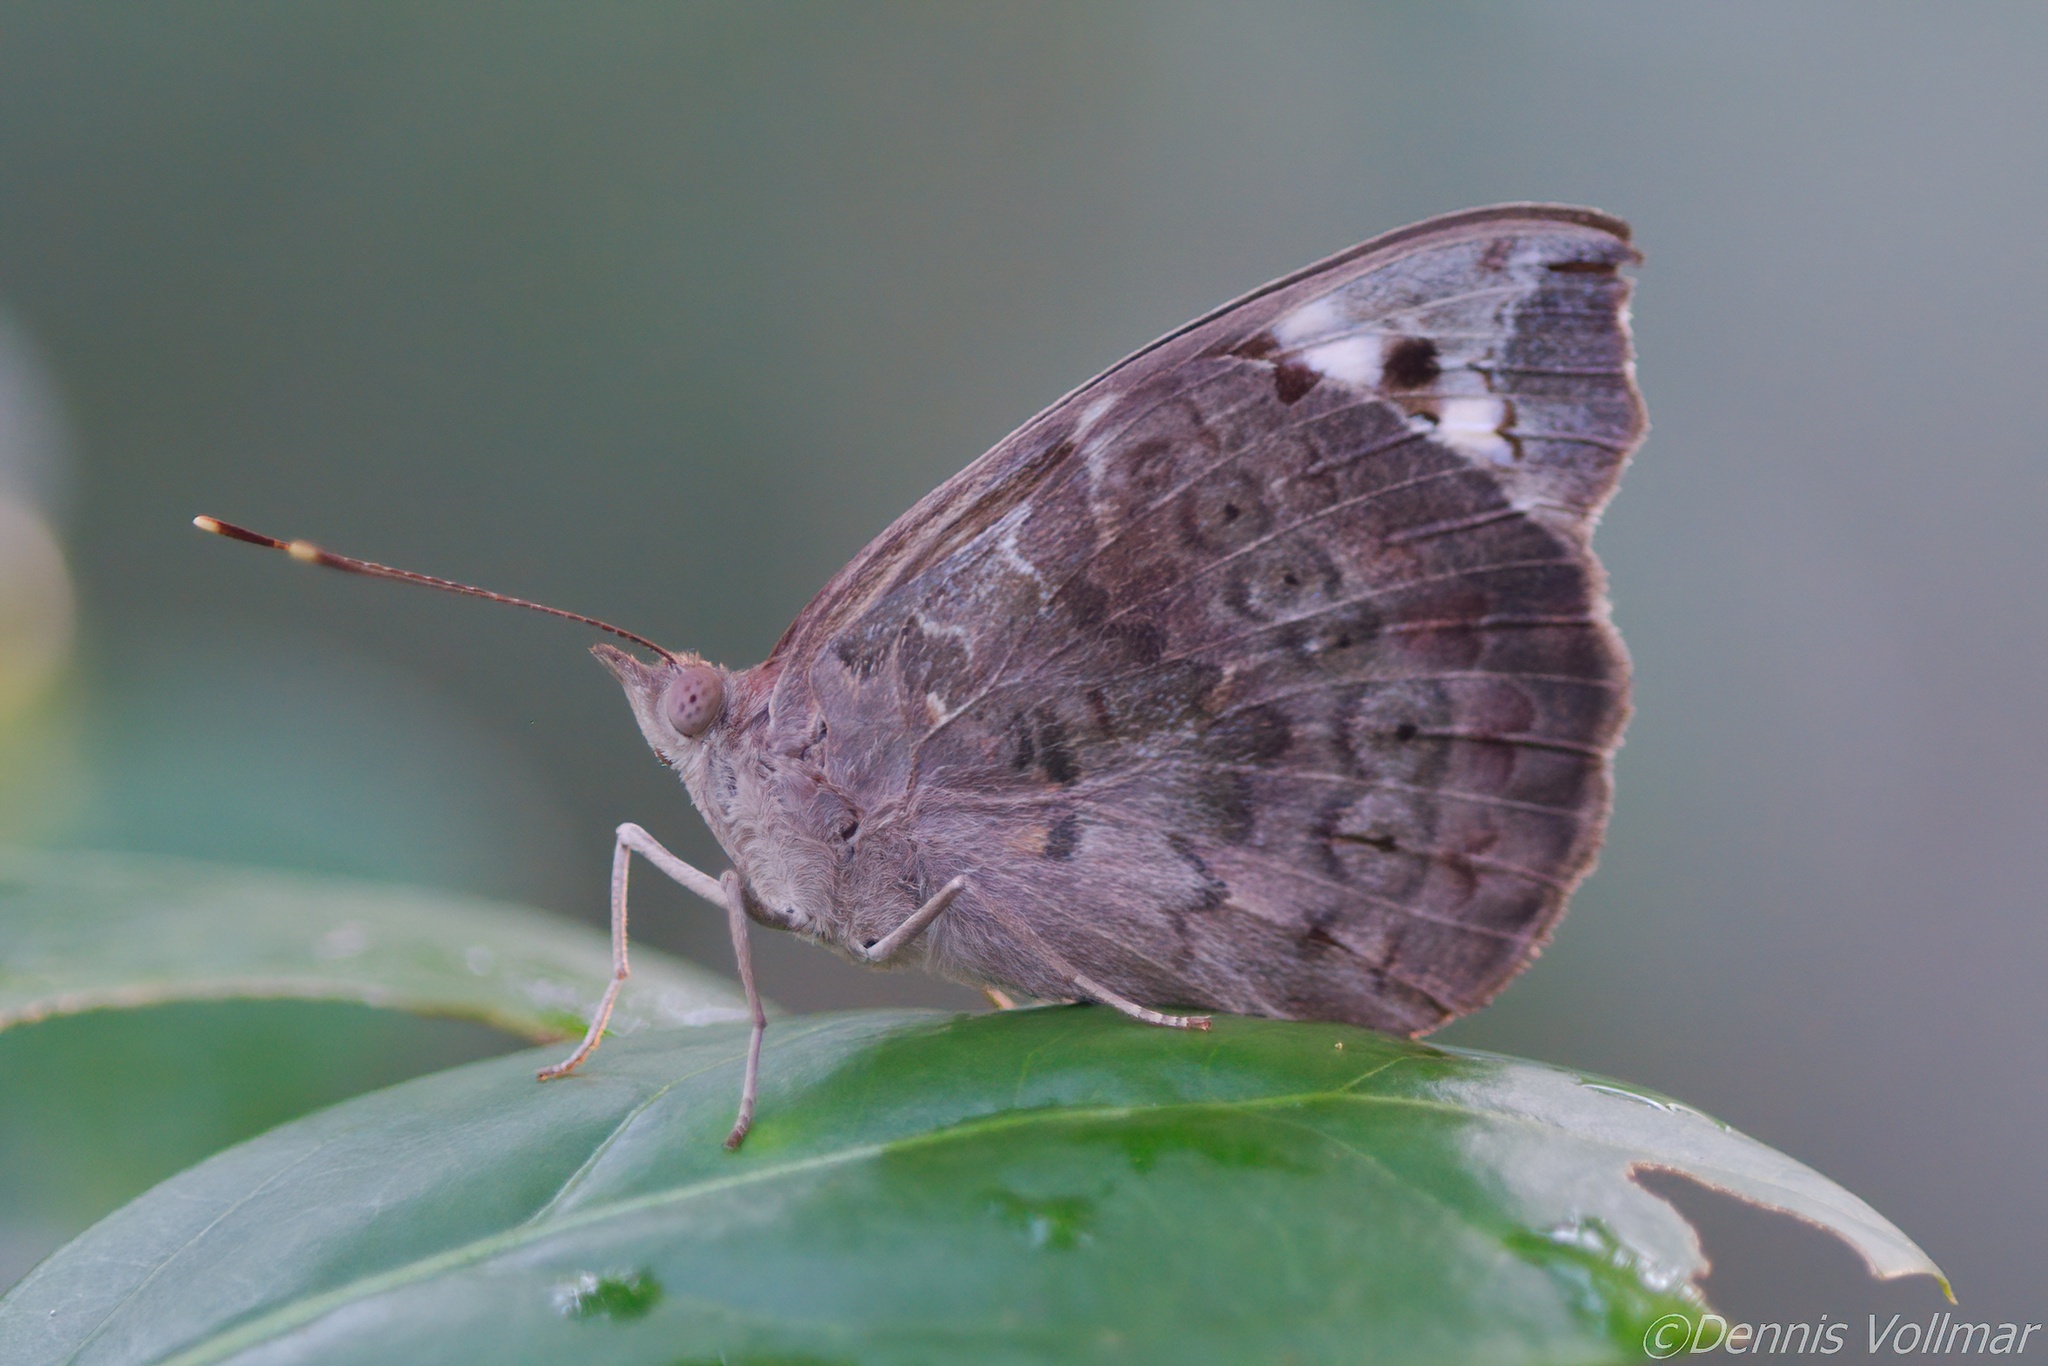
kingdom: Animalia
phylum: Arthropoda
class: Insecta
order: Lepidoptera
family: Nymphalidae
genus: Eunica
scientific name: Eunica tatila
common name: Florida purplewing
